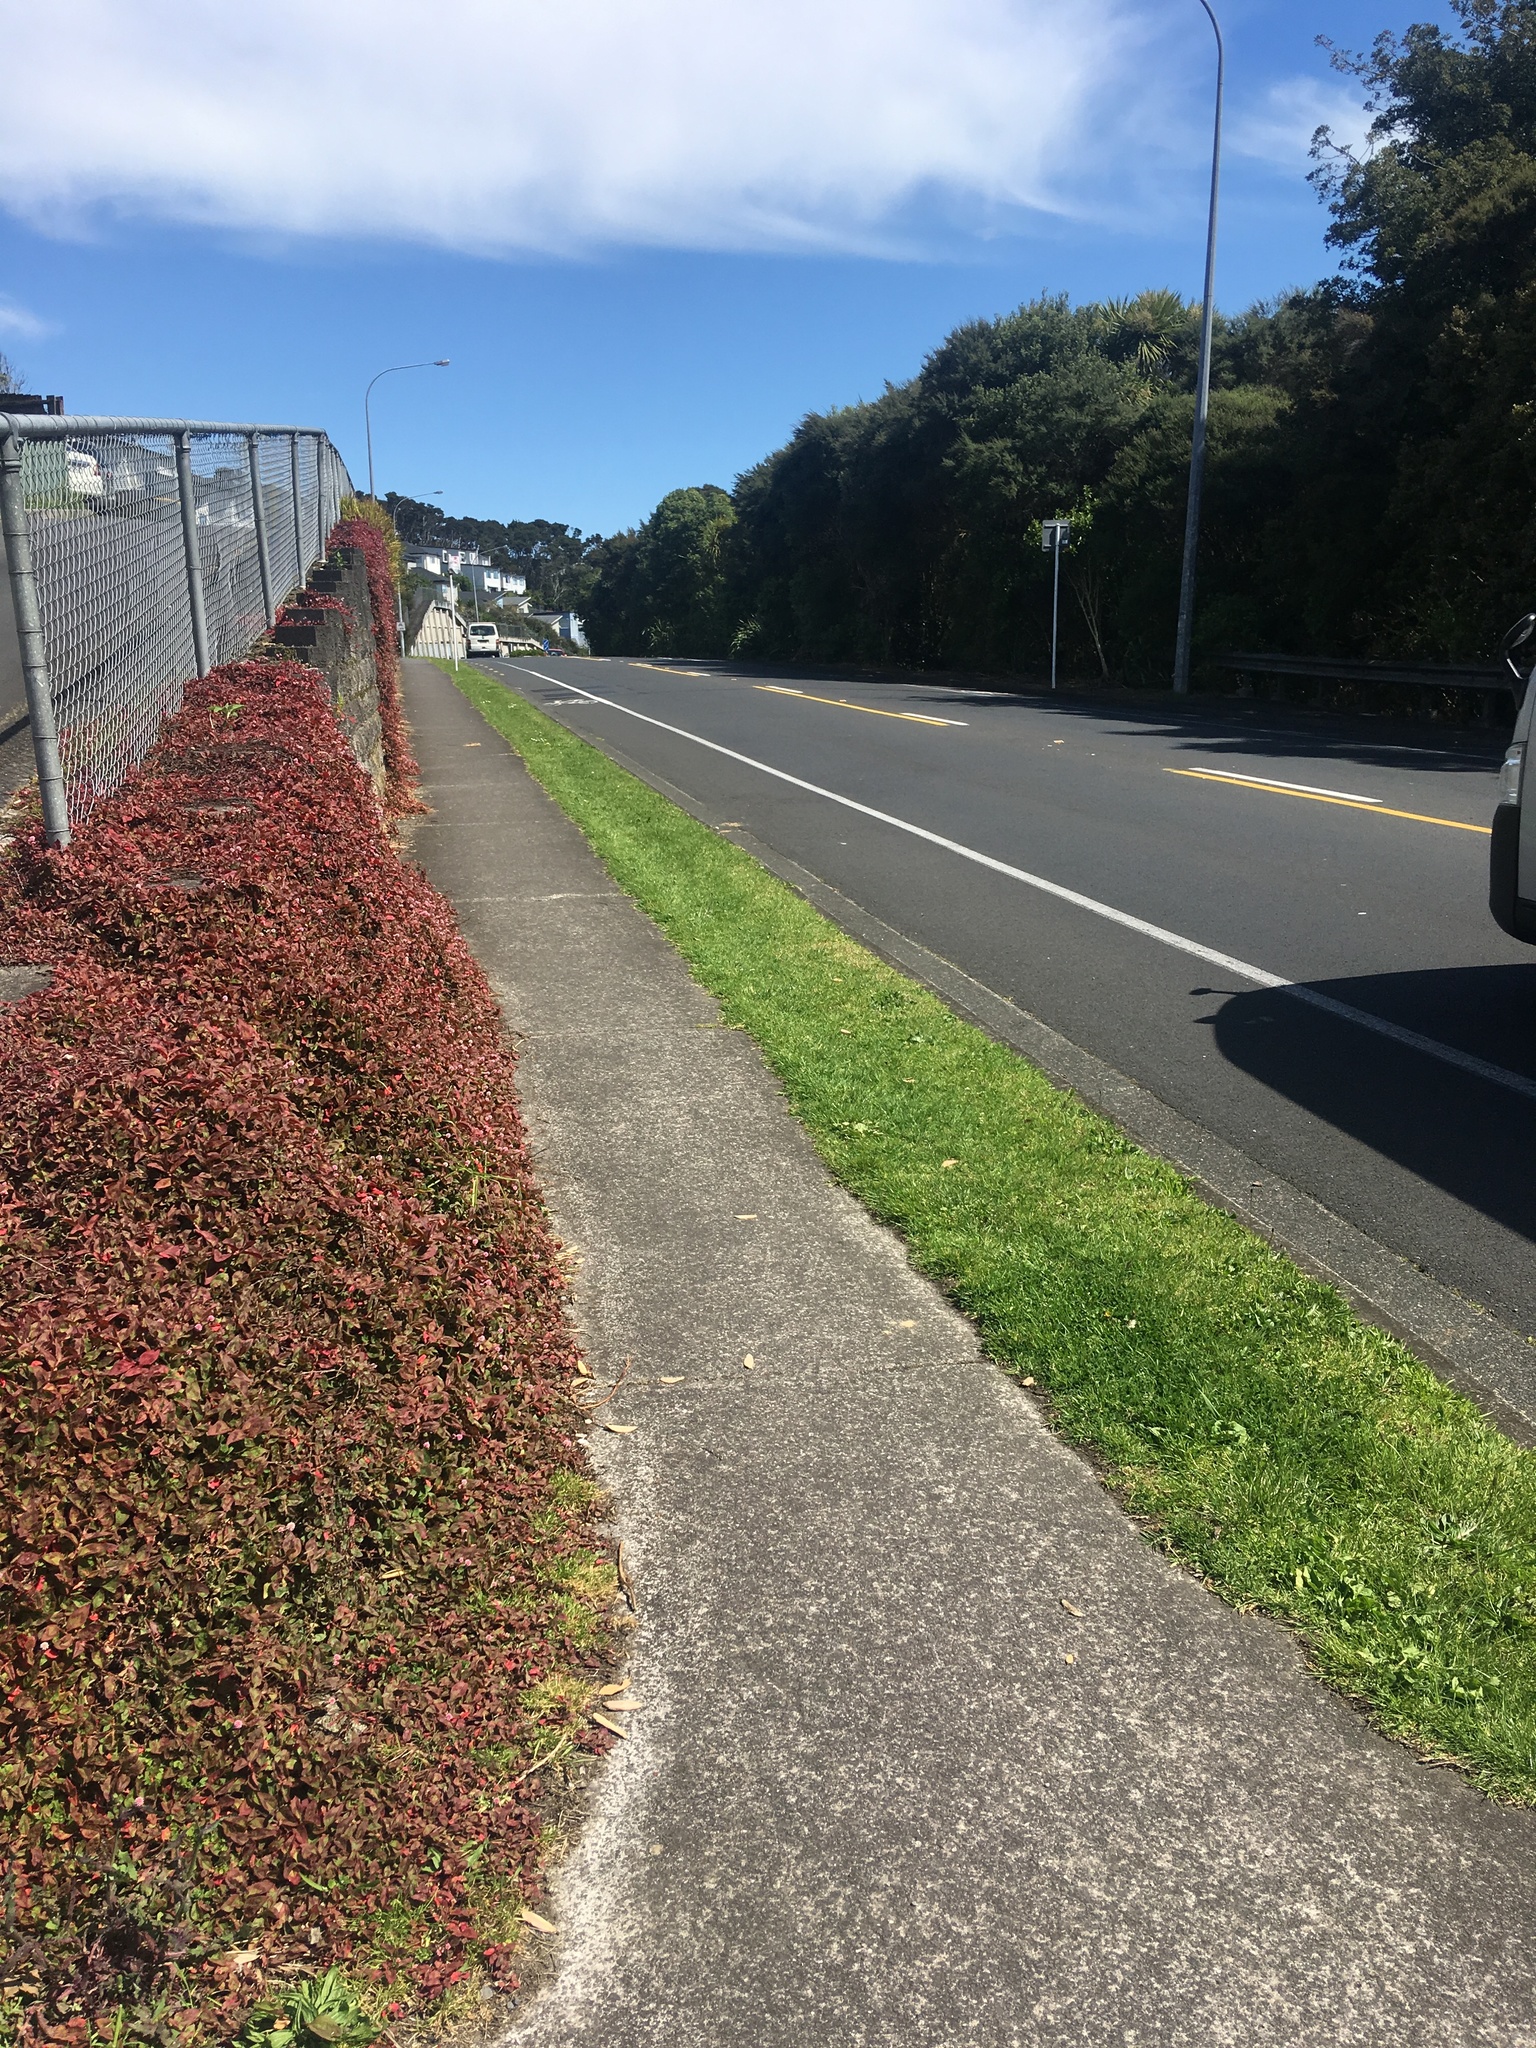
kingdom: Plantae
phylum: Tracheophyta
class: Magnoliopsida
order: Caryophyllales
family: Polygonaceae
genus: Persicaria
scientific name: Persicaria capitata
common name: Pinkhead smartweed
